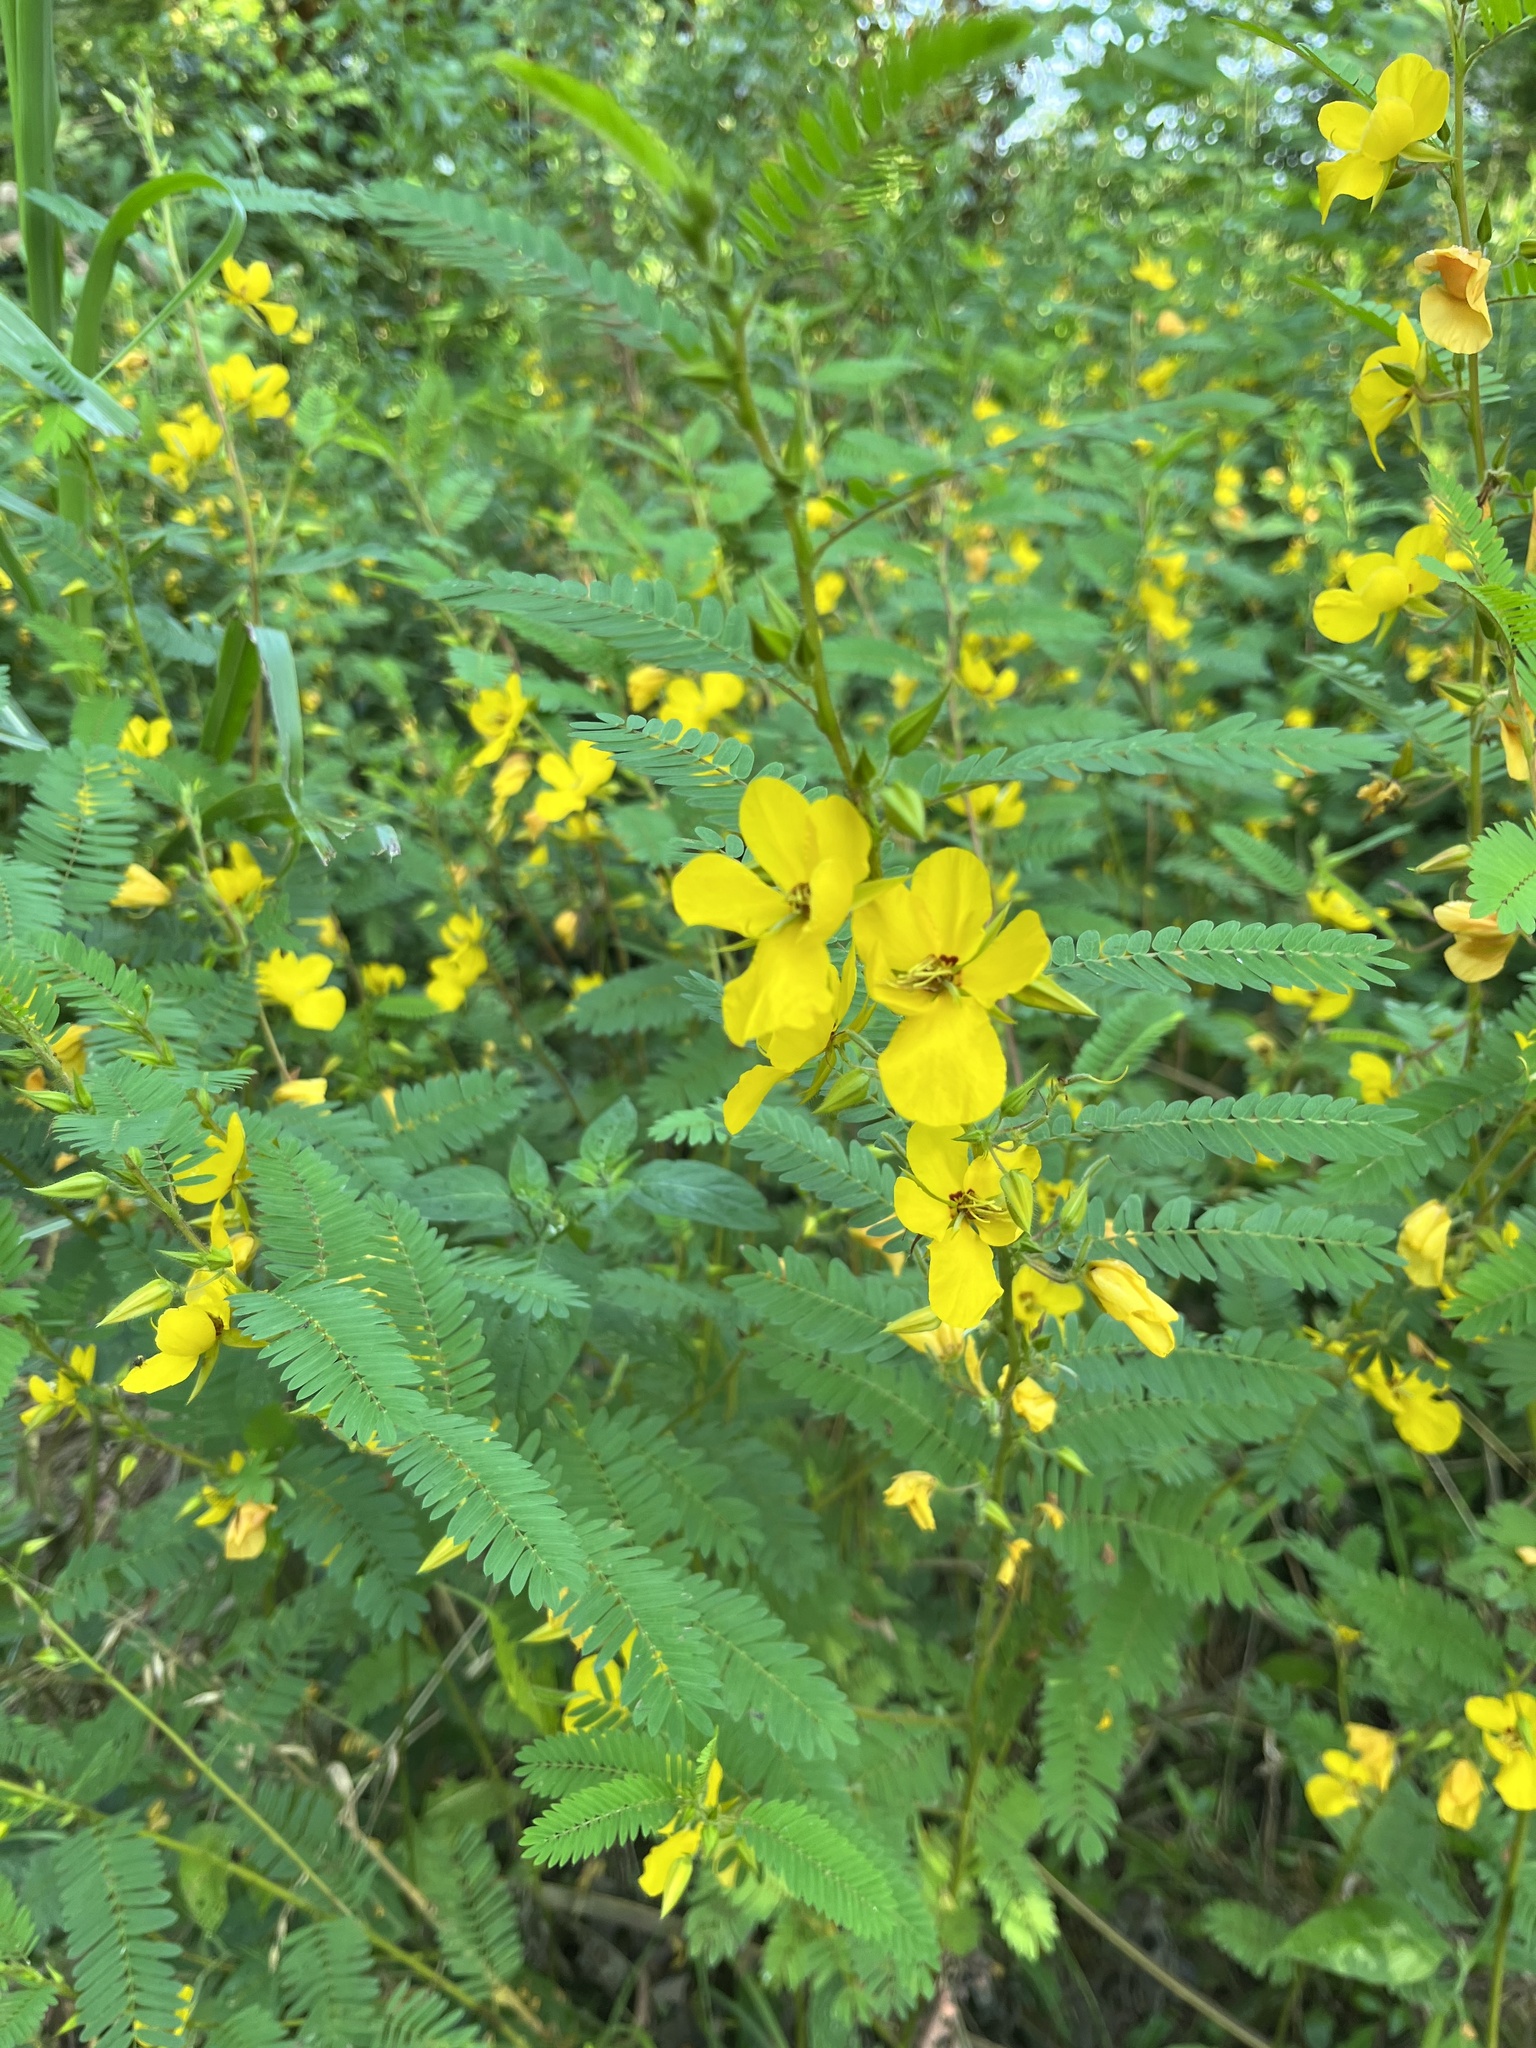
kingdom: Plantae
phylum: Tracheophyta
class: Magnoliopsida
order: Fabales
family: Fabaceae
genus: Chamaecrista
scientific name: Chamaecrista fasciculata
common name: Golden cassia
